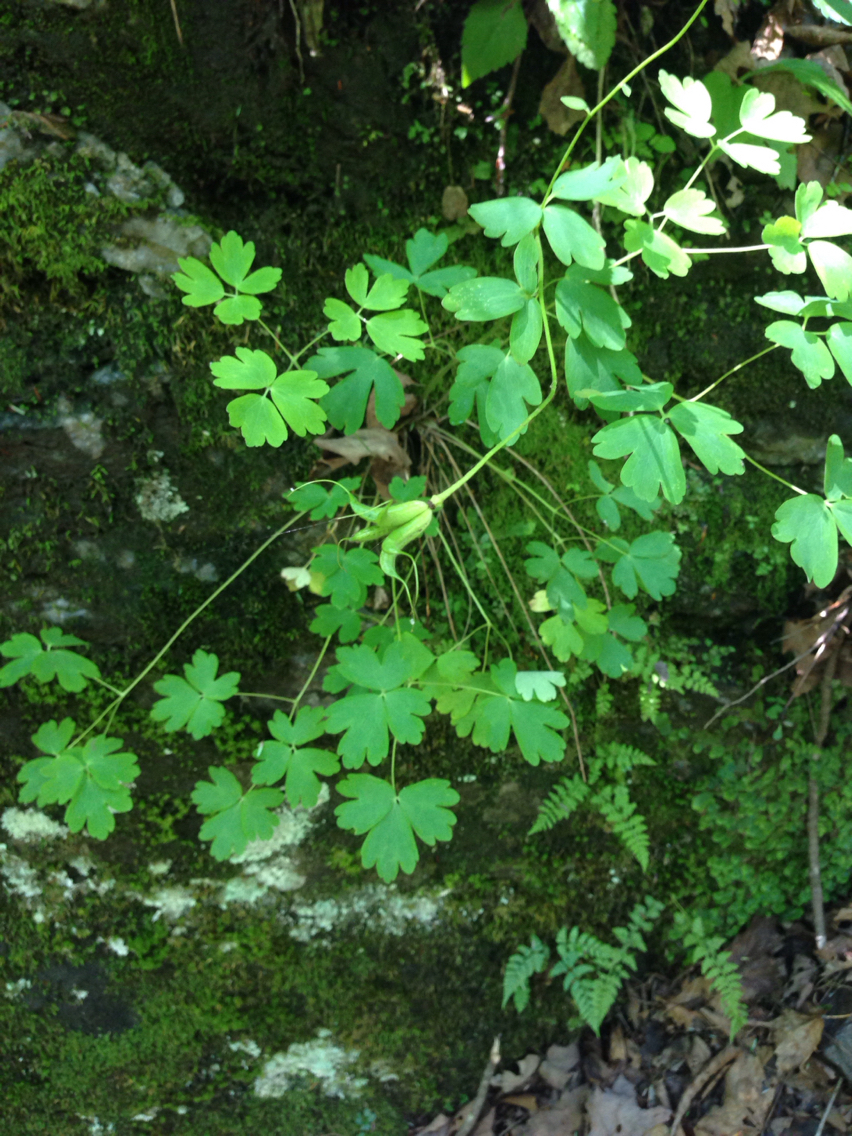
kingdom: Plantae
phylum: Tracheophyta
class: Magnoliopsida
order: Ranunculales
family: Ranunculaceae
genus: Aquilegia
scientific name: Aquilegia canadensis
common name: American columbine
